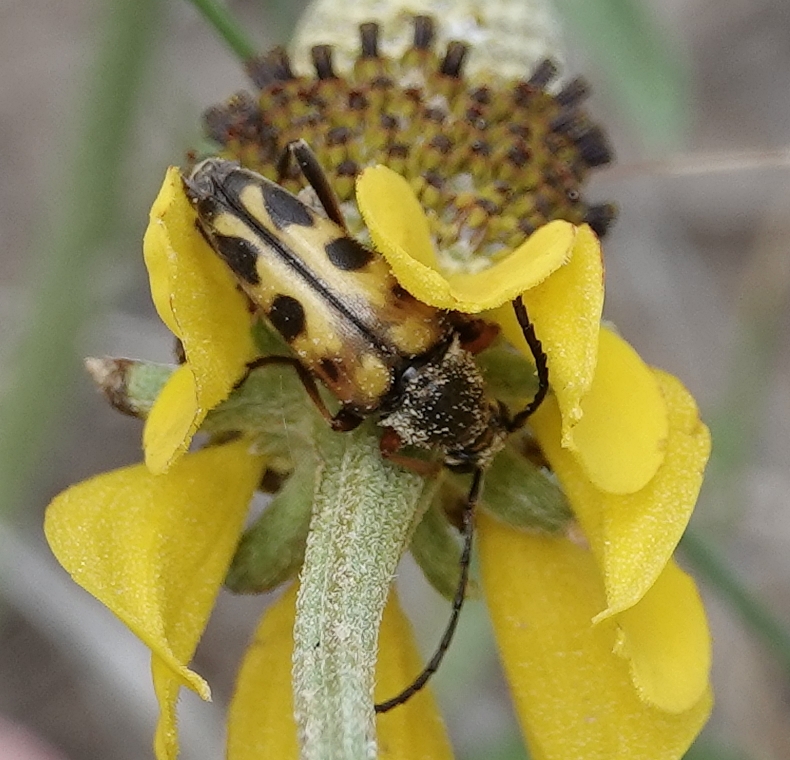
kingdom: Animalia
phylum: Arthropoda
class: Insecta
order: Coleoptera
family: Cerambycidae
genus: Typocerus
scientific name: Typocerus octonotatus
